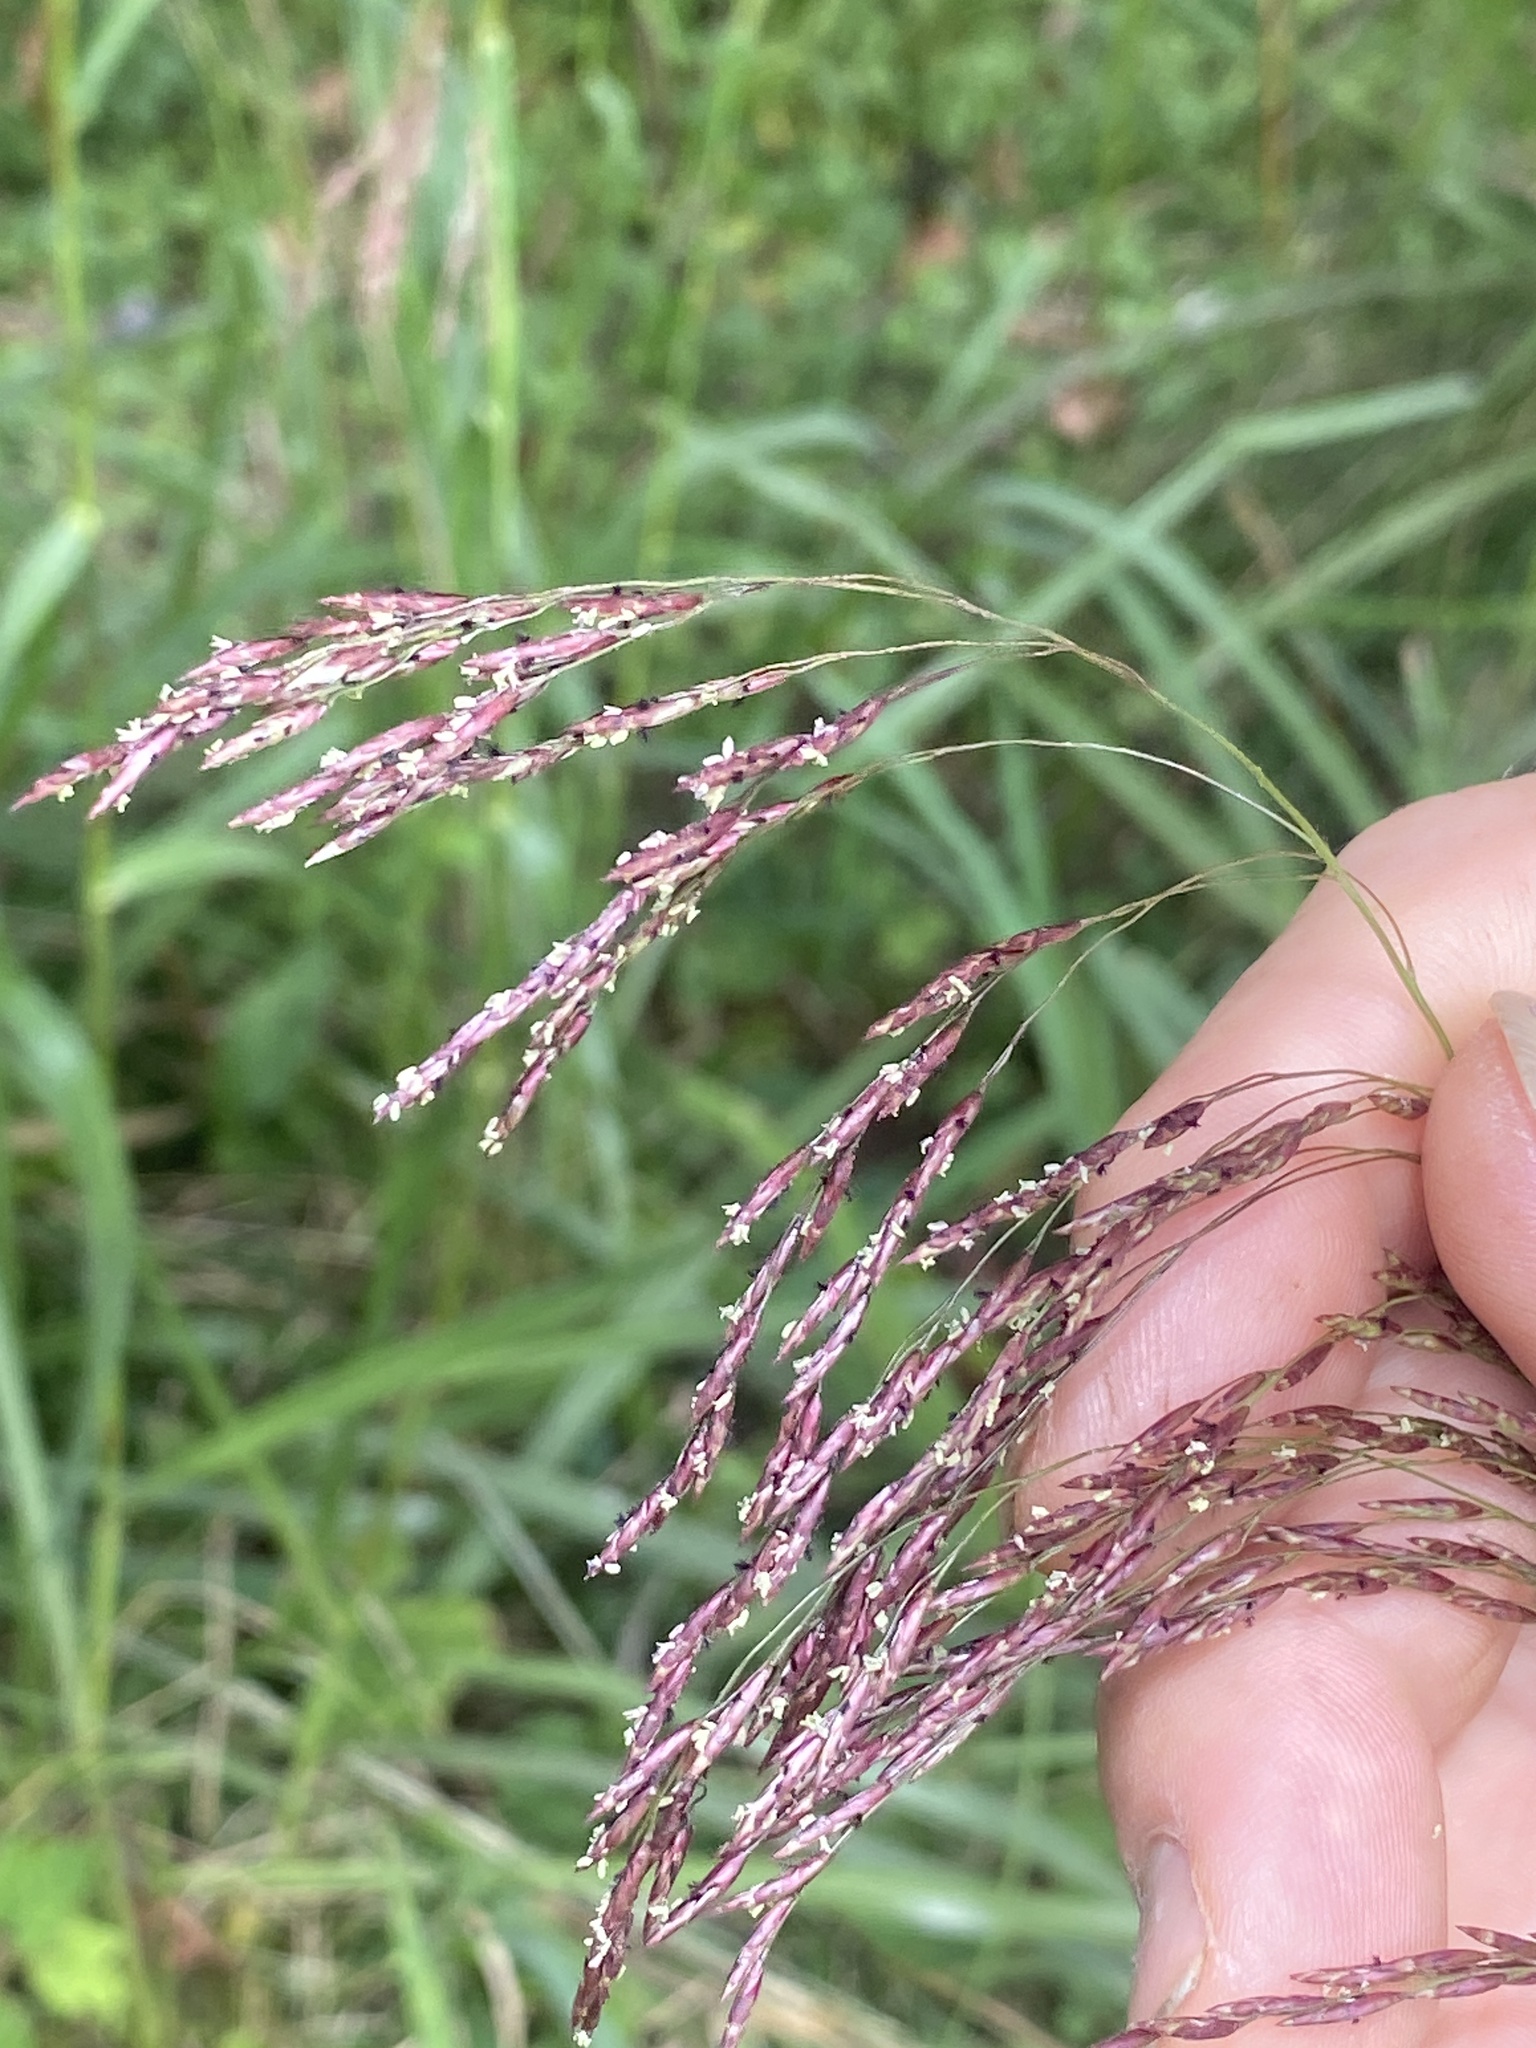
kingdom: Plantae
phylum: Tracheophyta
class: Liliopsida
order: Poales
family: Poaceae
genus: Tridens
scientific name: Tridens flavus
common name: Purpletop
